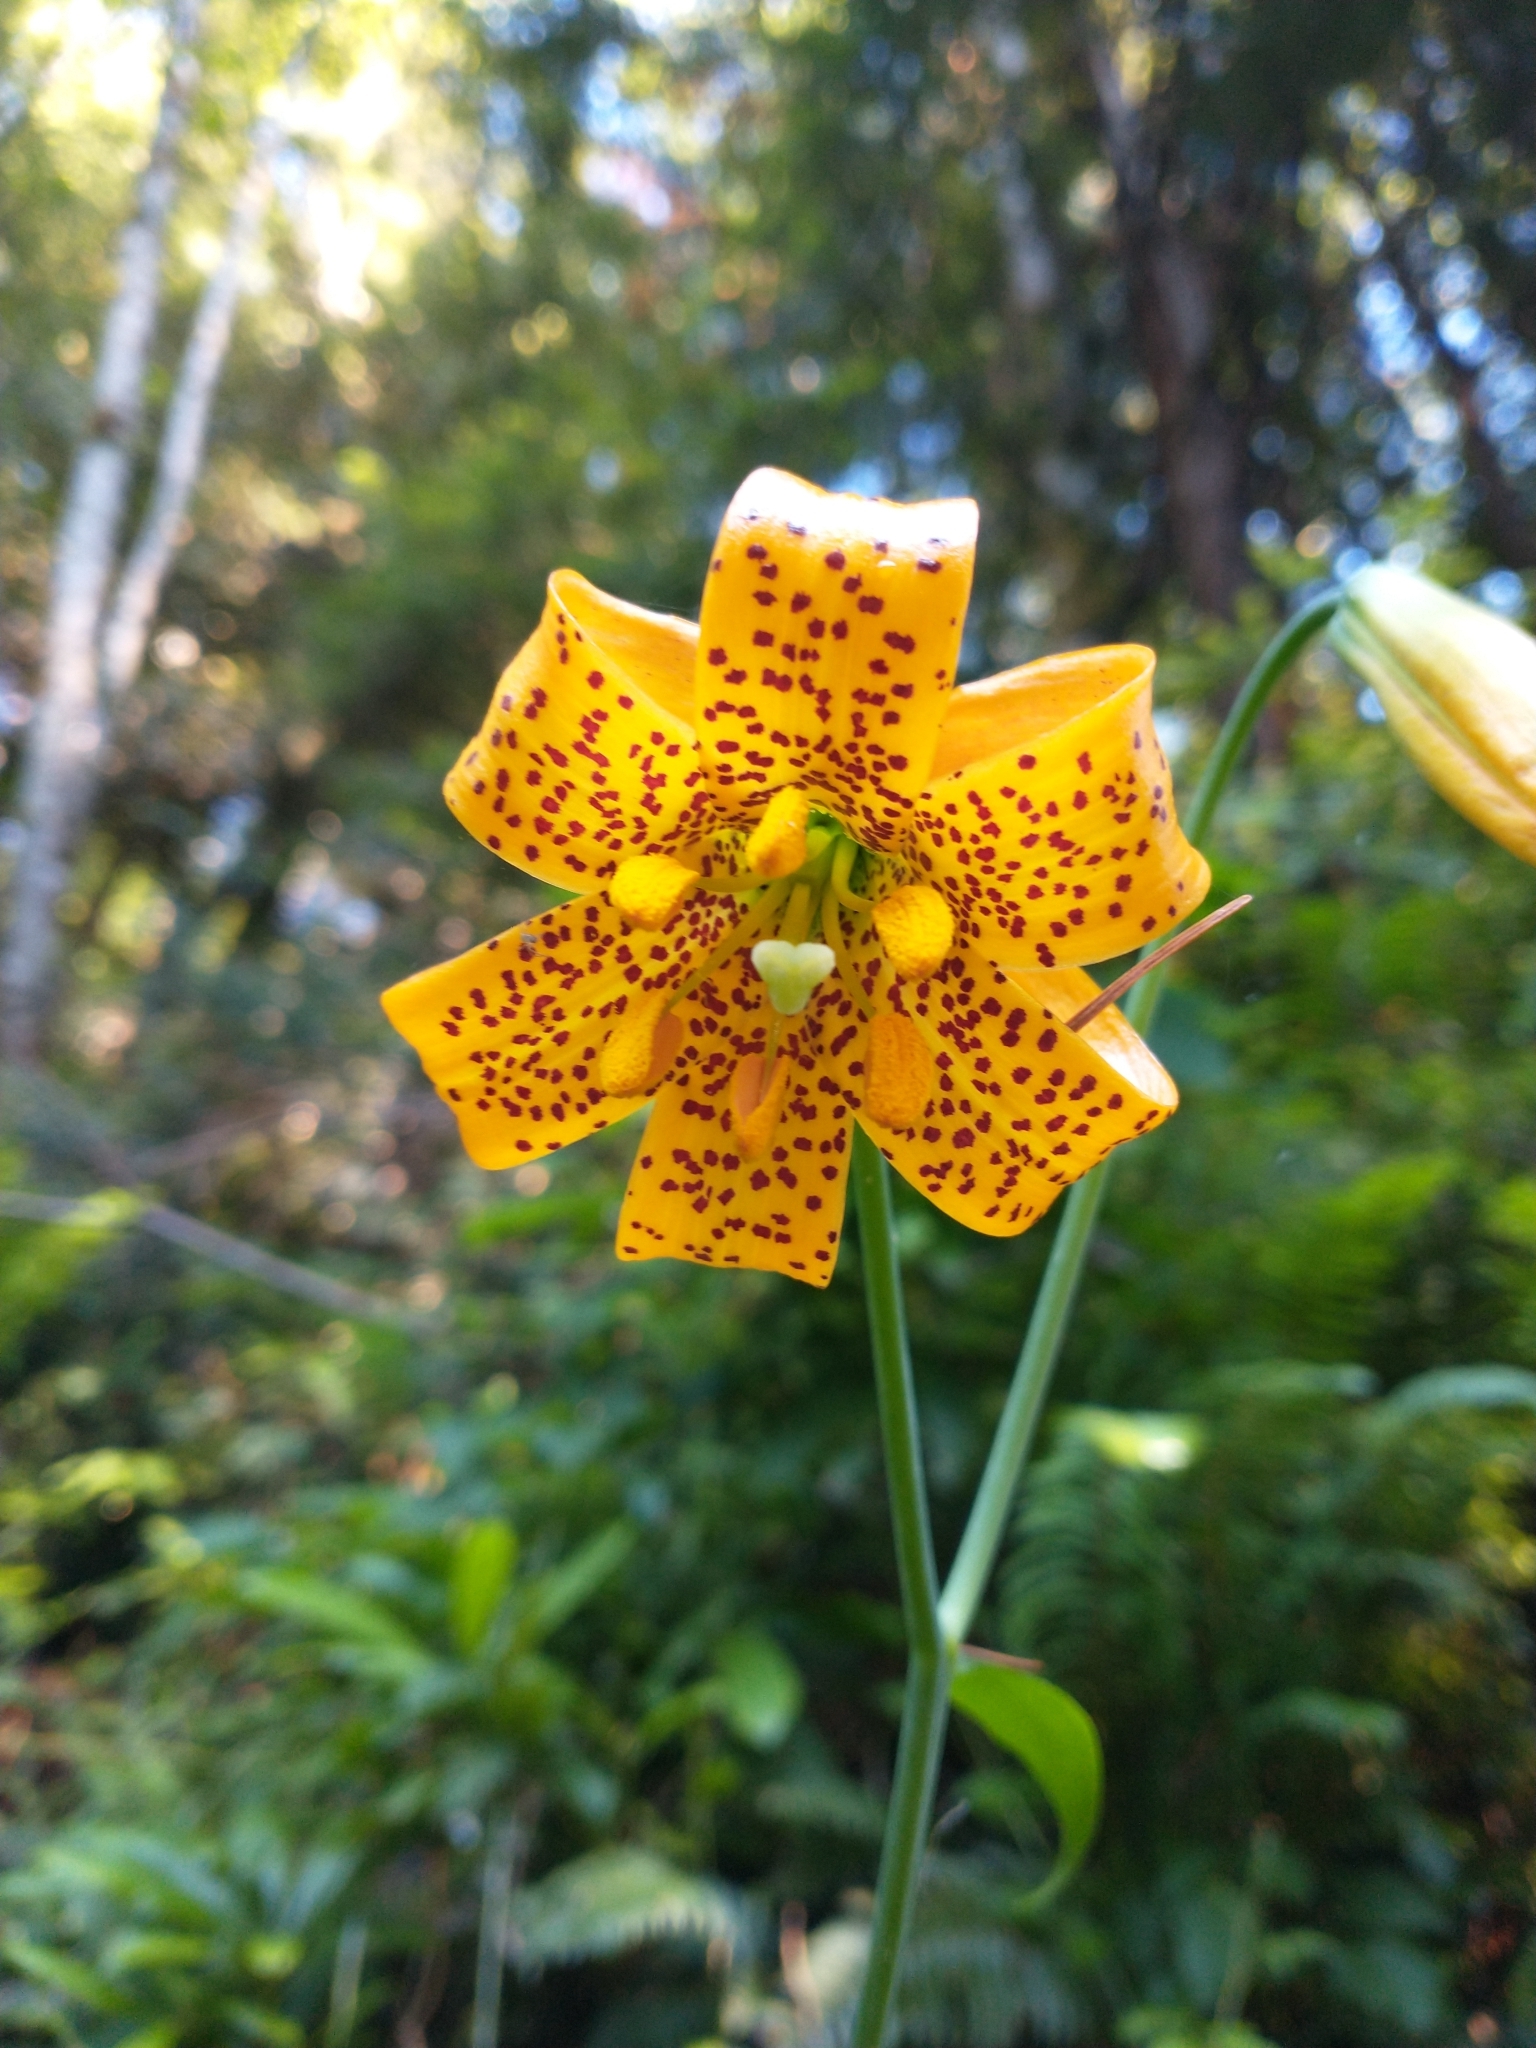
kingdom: Plantae
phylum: Tracheophyta
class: Liliopsida
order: Liliales
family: Liliaceae
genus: Lilium
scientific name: Lilium columbianum
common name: Columbia lily
